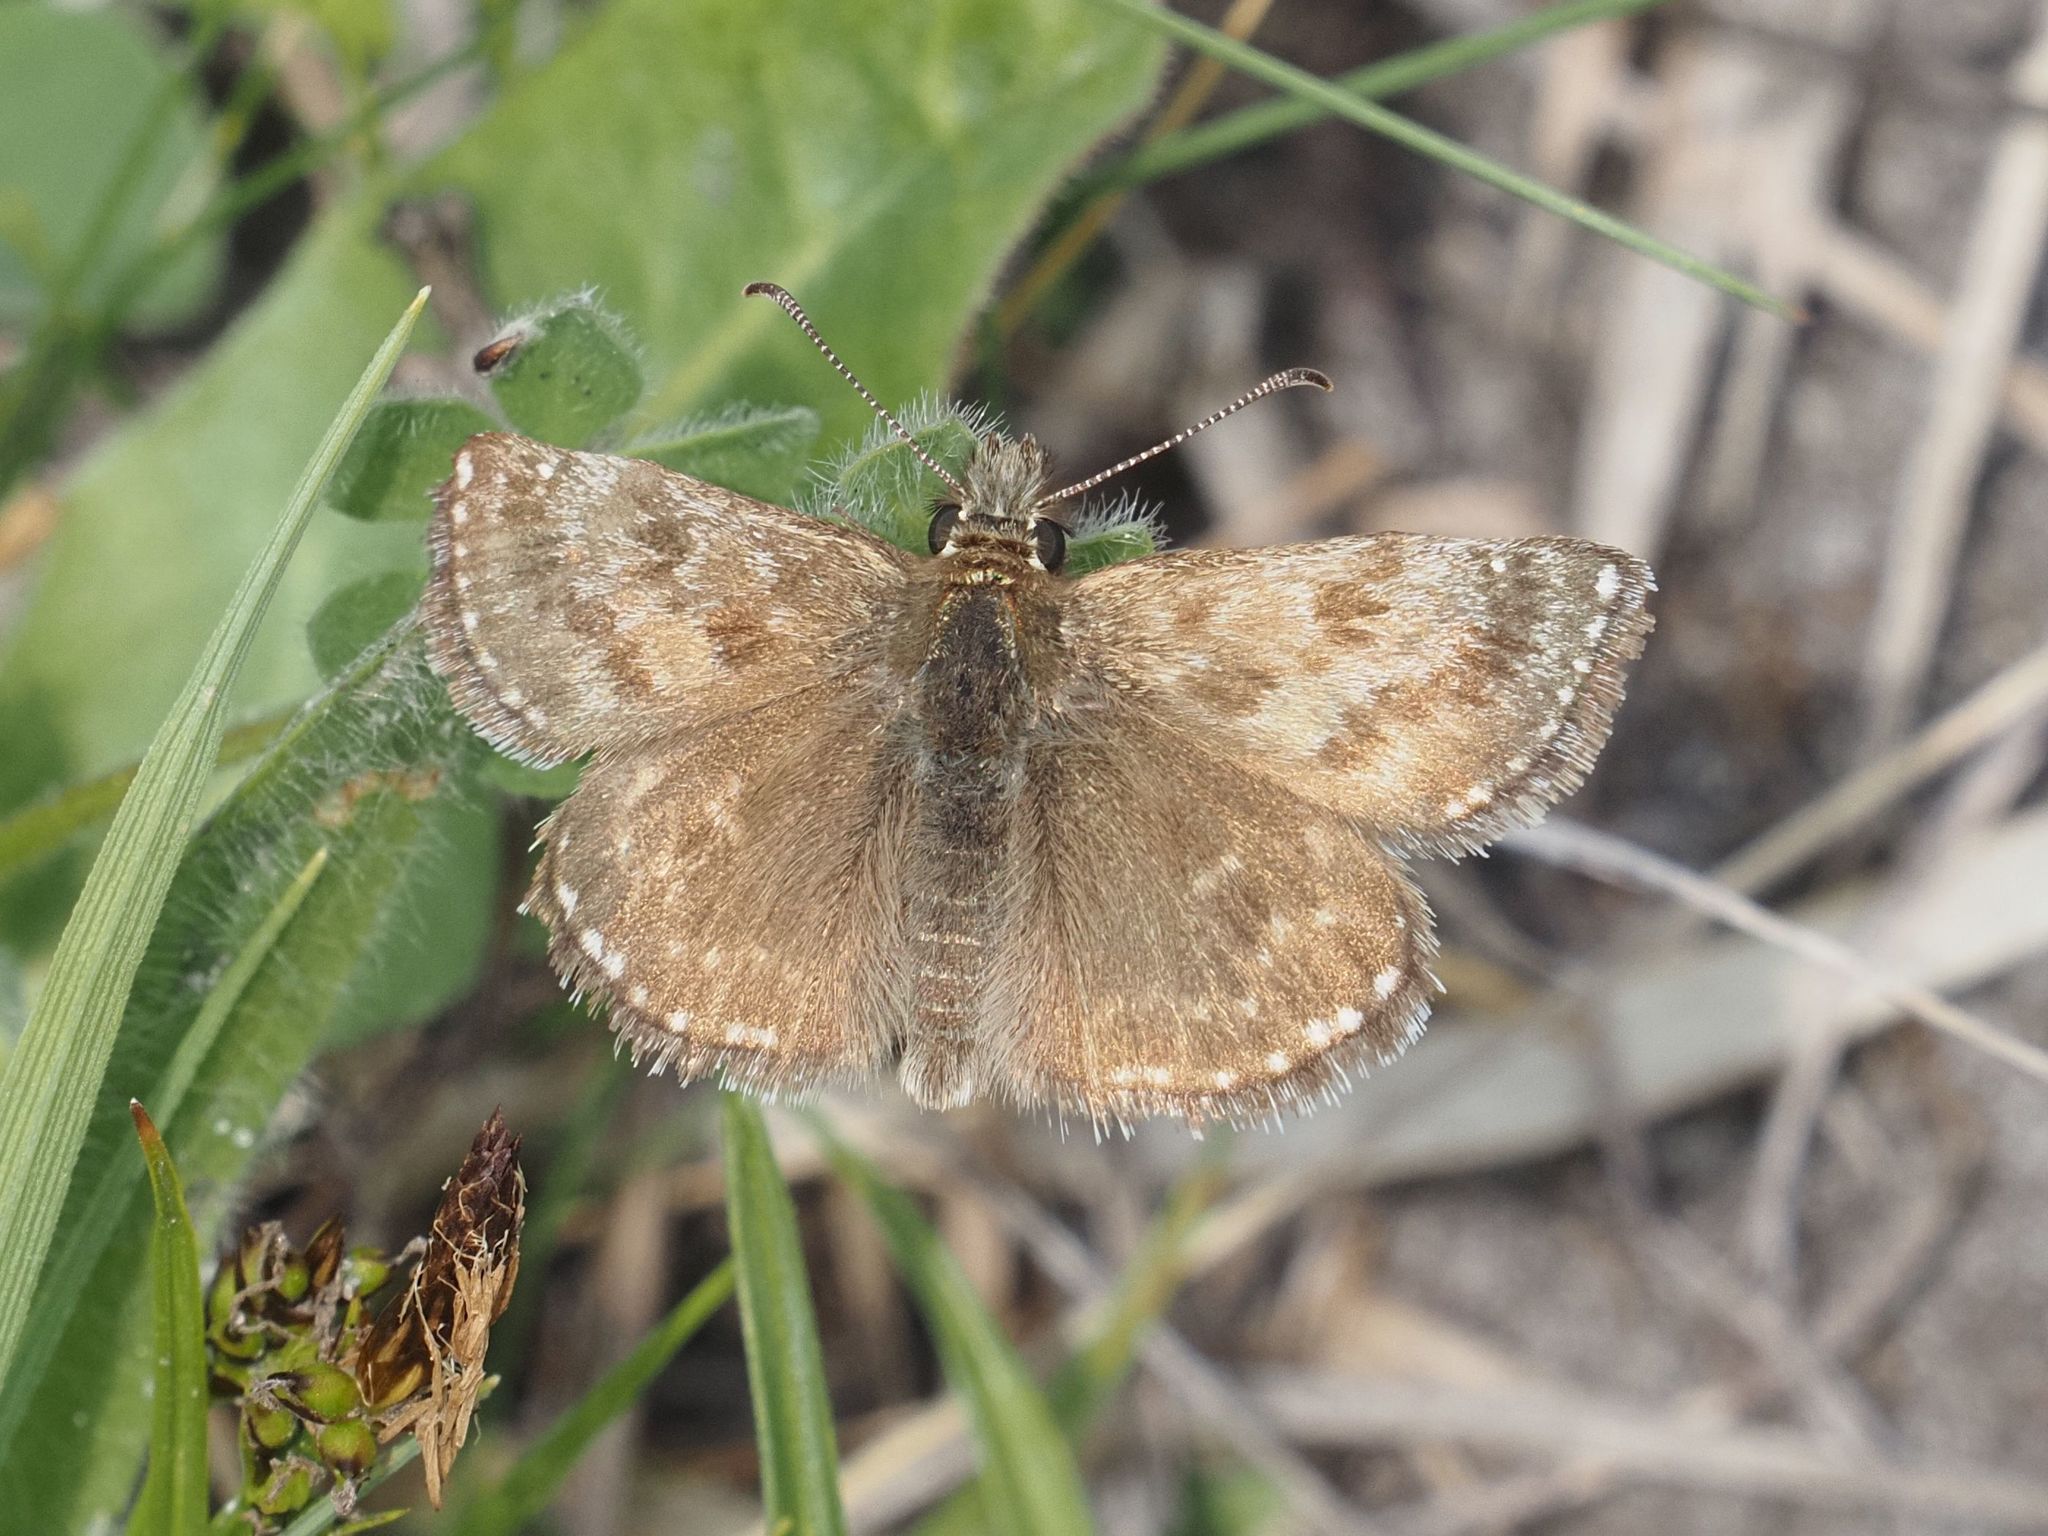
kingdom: Animalia
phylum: Arthropoda
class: Insecta
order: Lepidoptera
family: Hesperiidae
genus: Erynnis
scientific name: Erynnis tages
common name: Dingy skipper
